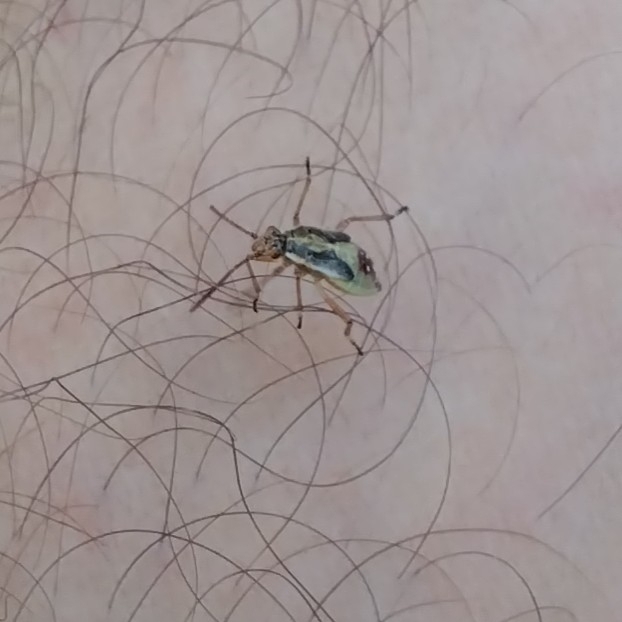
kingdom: Animalia
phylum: Arthropoda
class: Insecta
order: Hemiptera
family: Rhopalidae
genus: Liorhyssus
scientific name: Liorhyssus hyalinus
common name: Scentless plant bug
